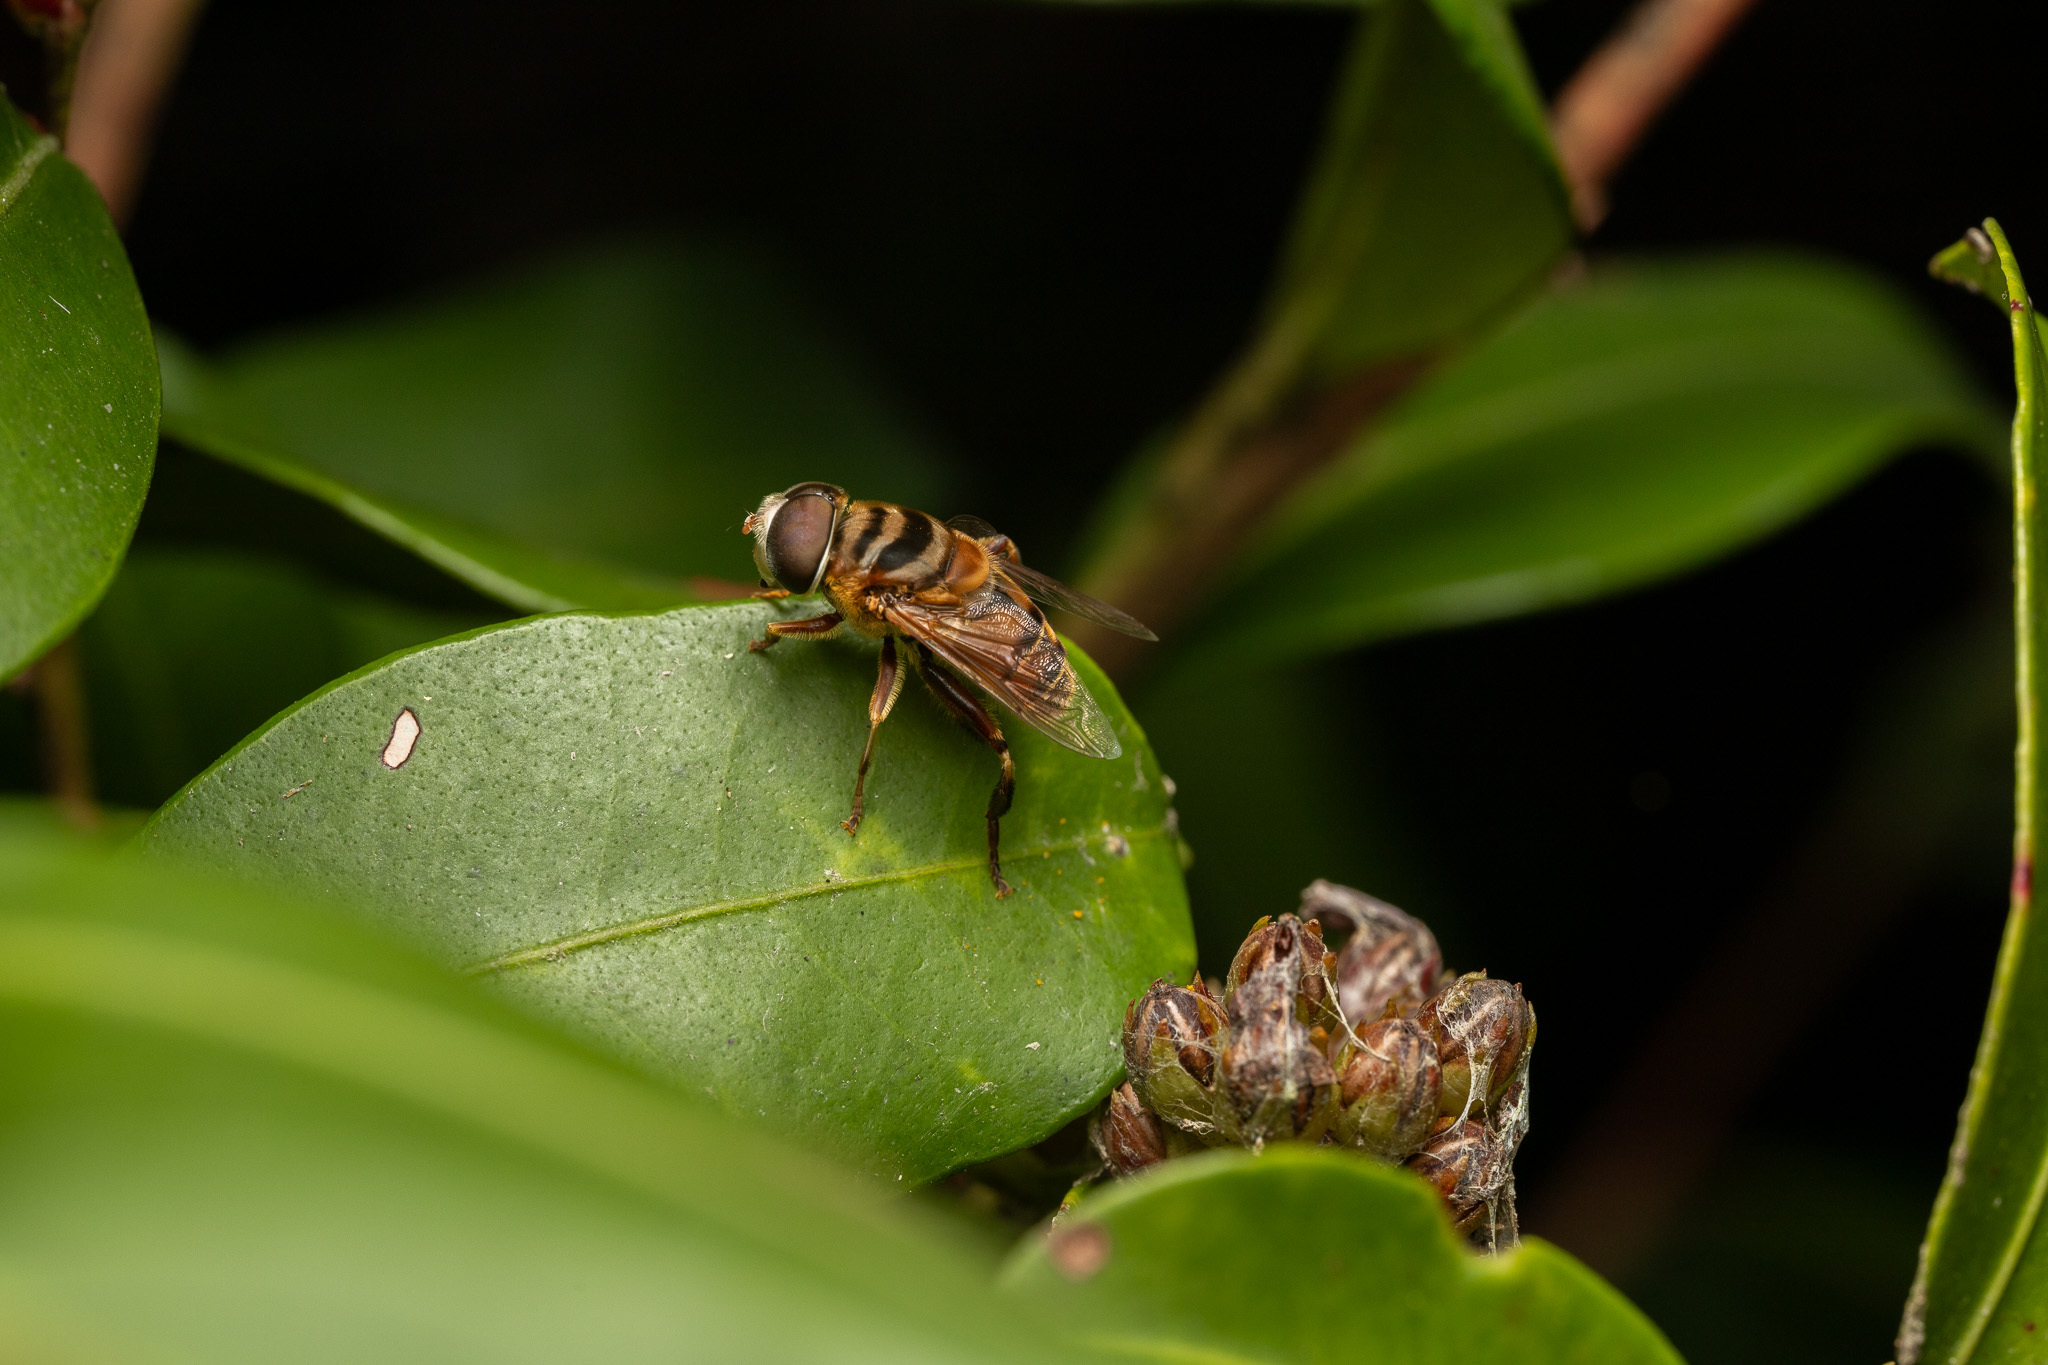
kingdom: Animalia
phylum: Arthropoda
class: Insecta
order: Diptera
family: Syrphidae
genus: Palpada
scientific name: Palpada vinetorum
